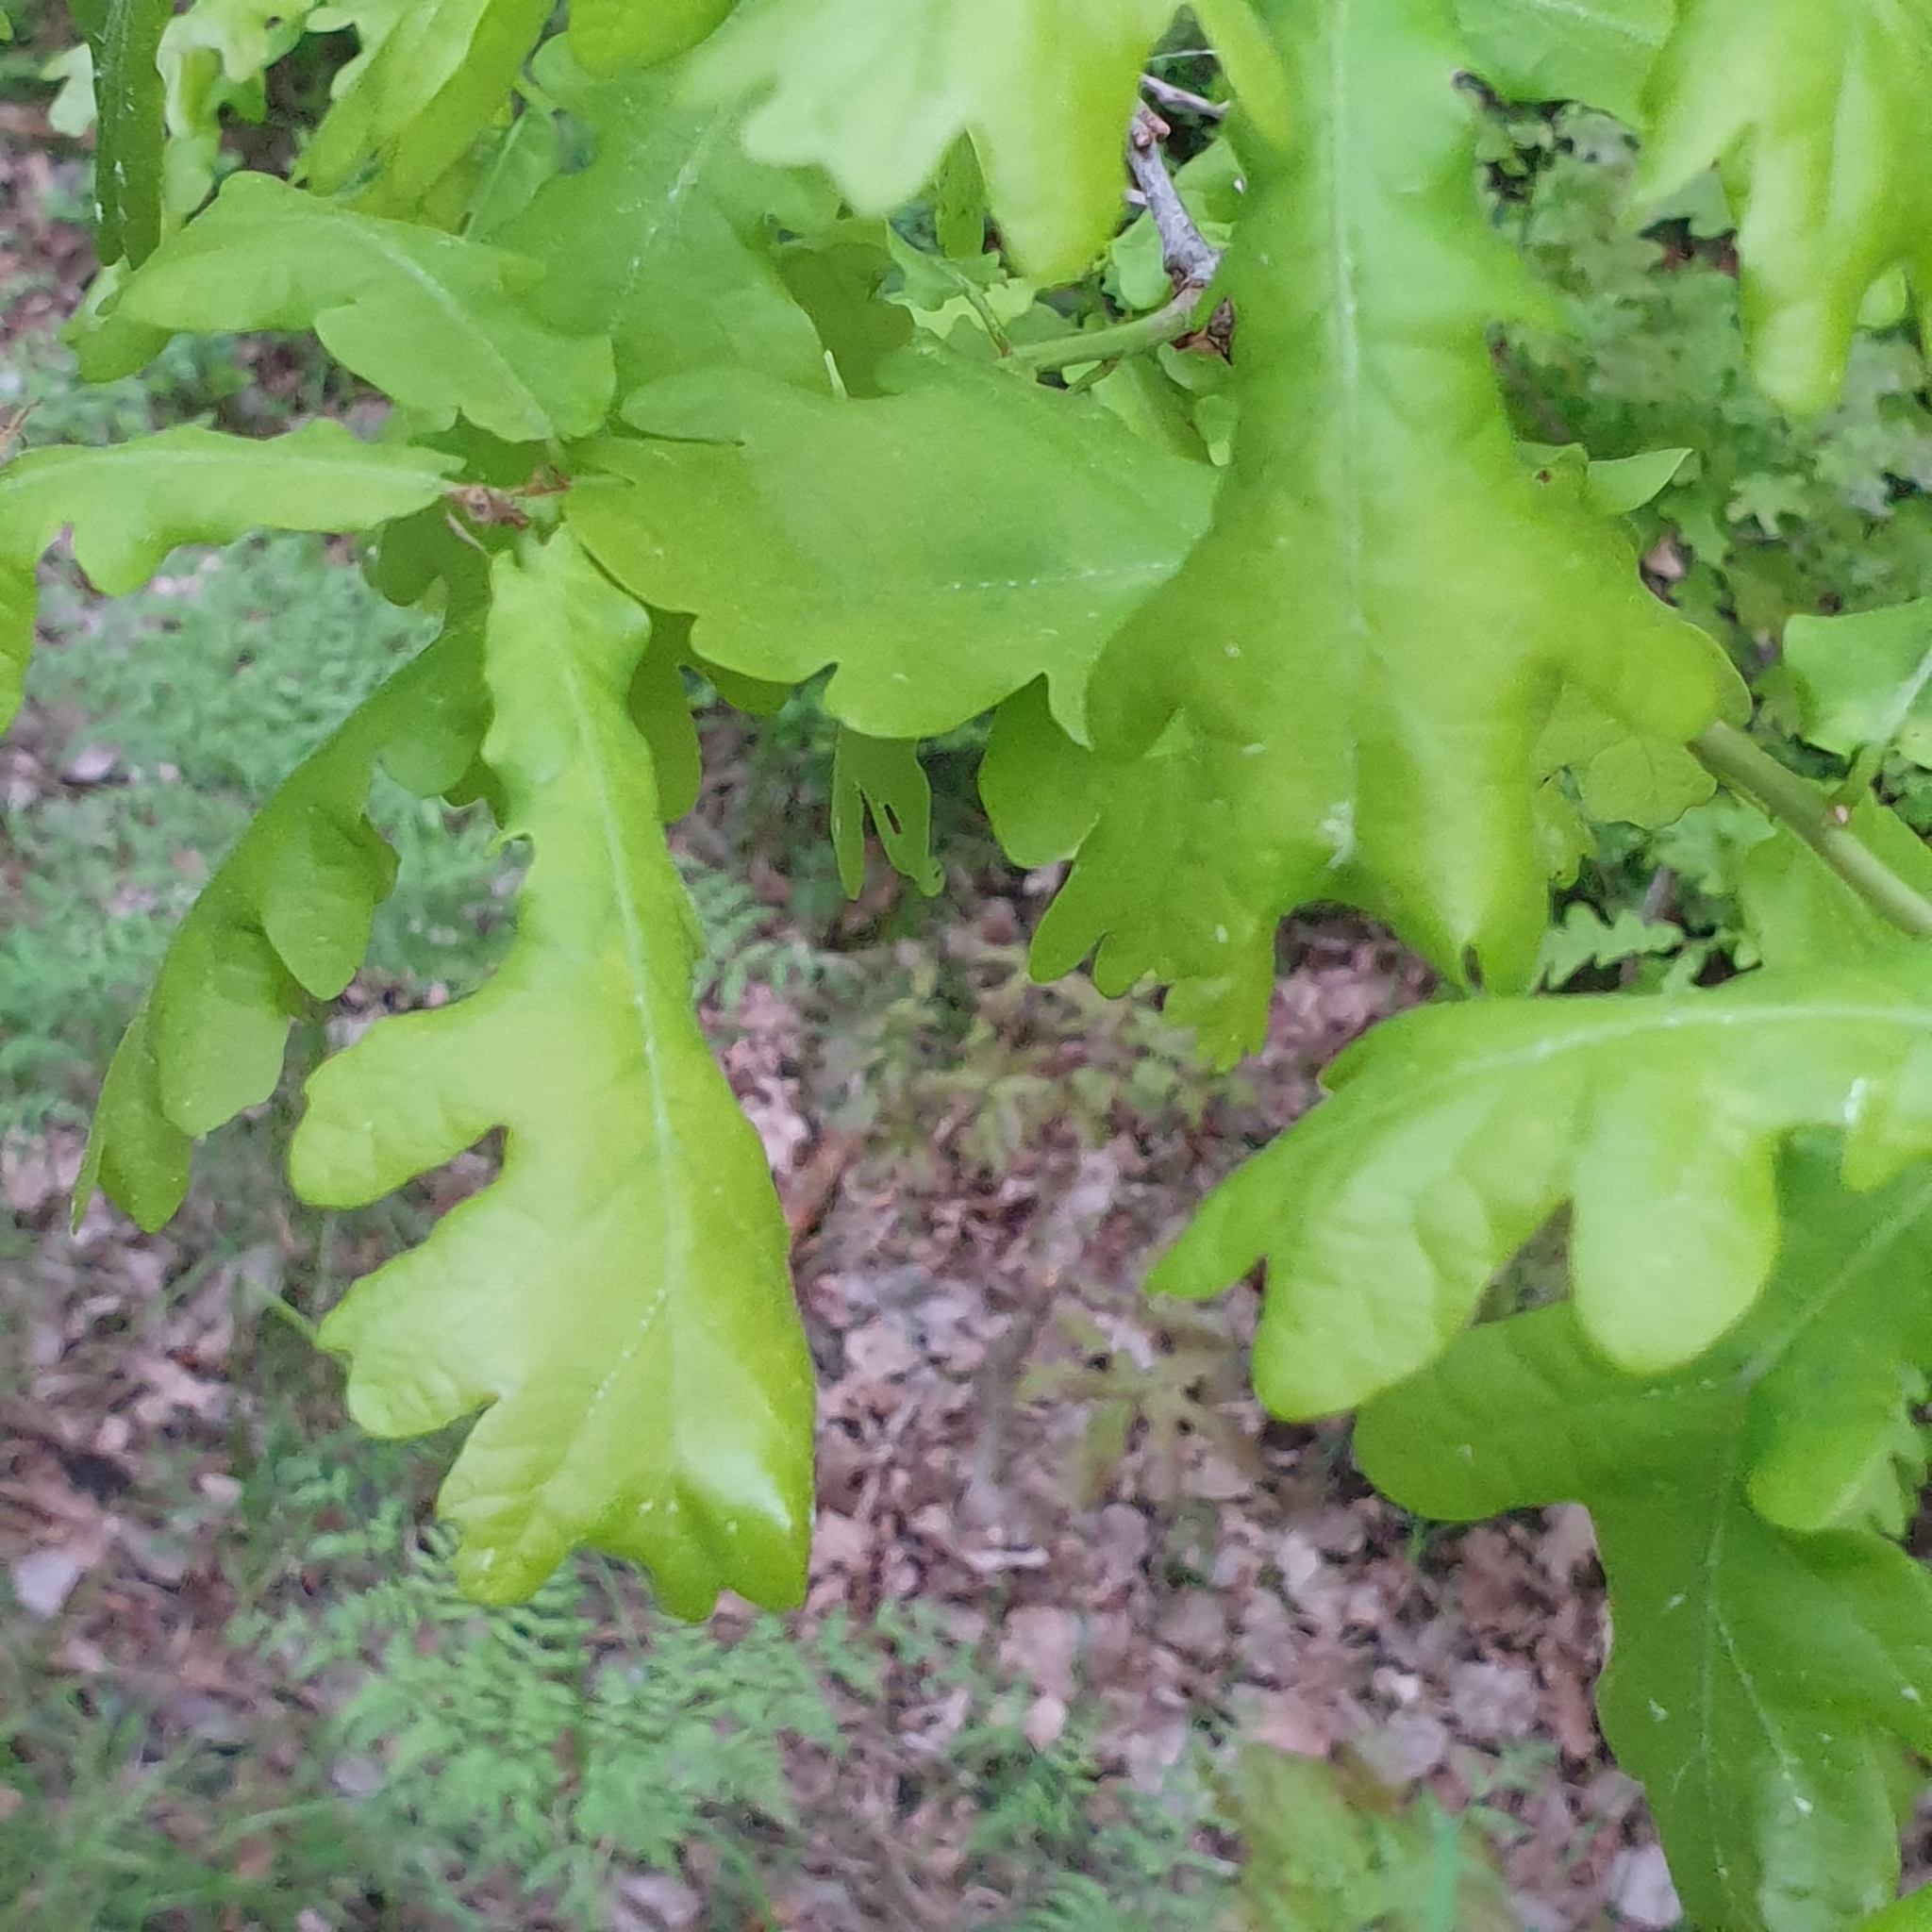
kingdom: Plantae
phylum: Tracheophyta
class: Magnoliopsida
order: Fagales
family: Fagaceae
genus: Quercus
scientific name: Quercus robur
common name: Pedunculate oak
